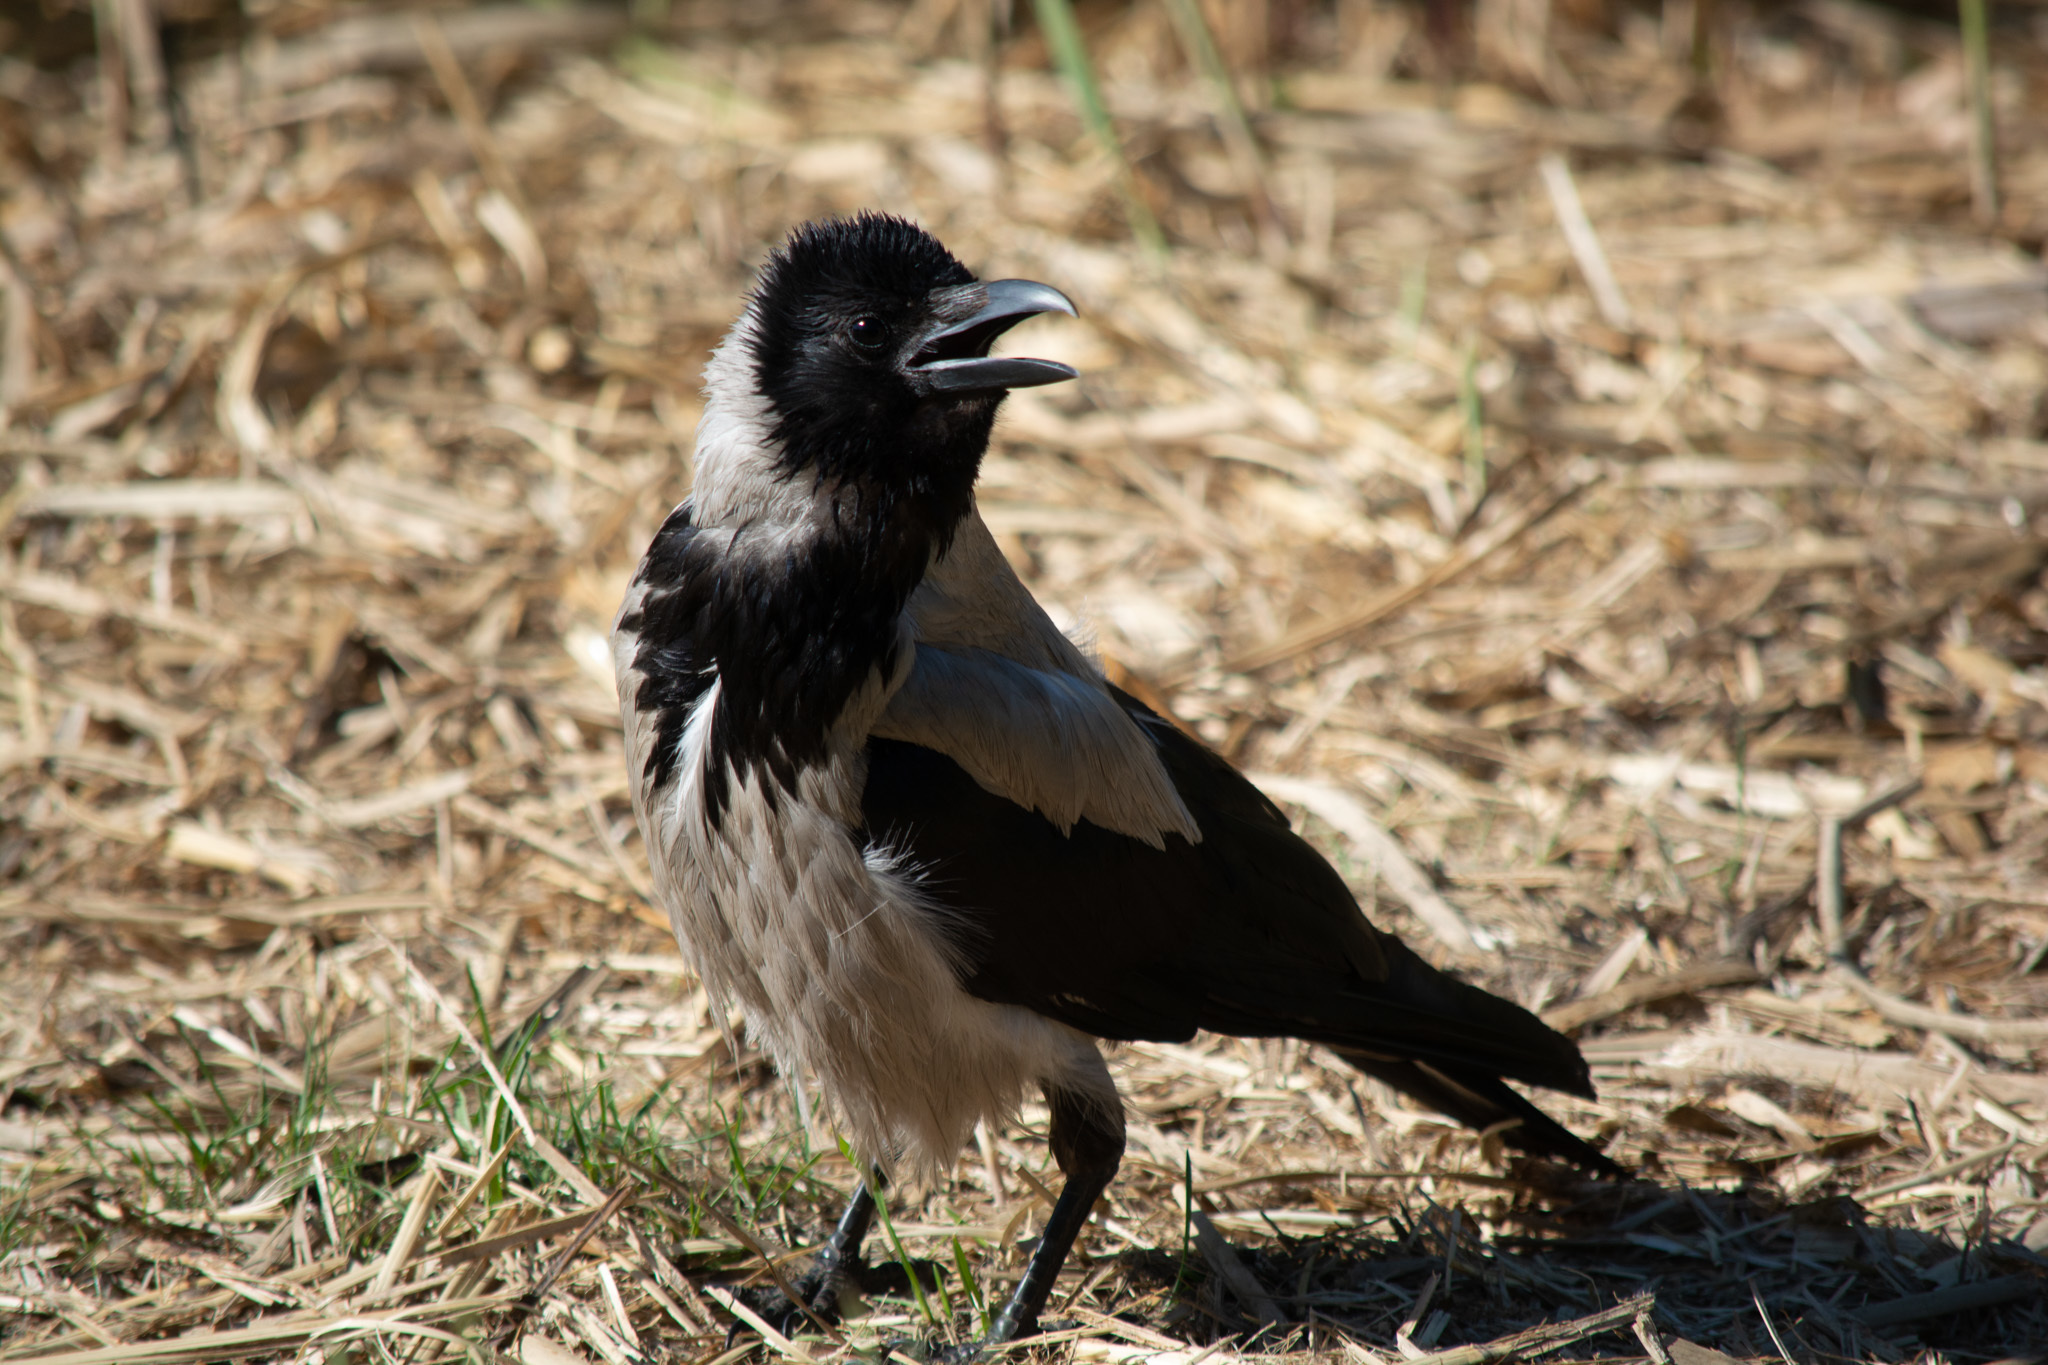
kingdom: Animalia
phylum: Chordata
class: Aves
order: Passeriformes
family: Corvidae
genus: Corvus
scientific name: Corvus cornix
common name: Hooded crow
